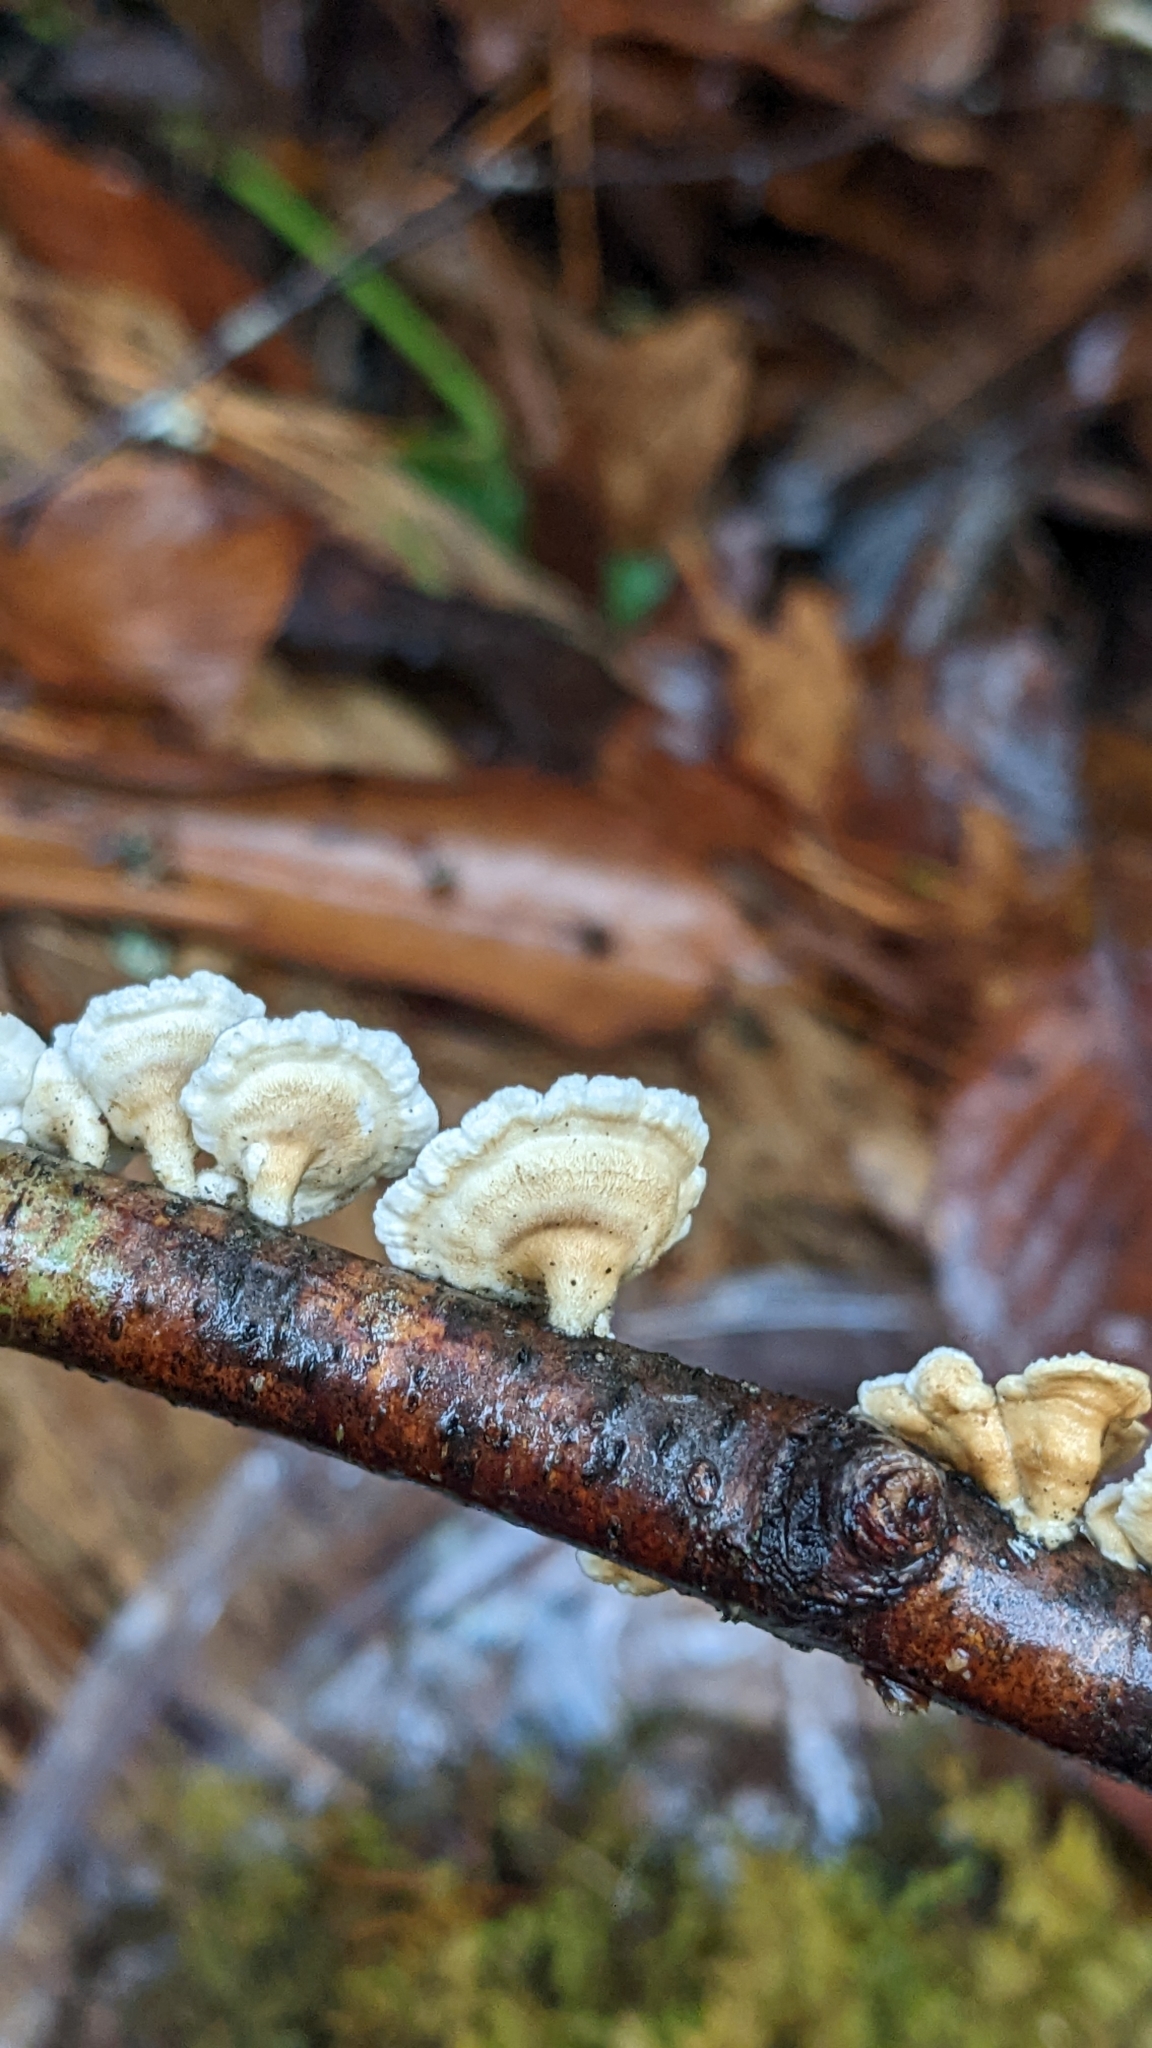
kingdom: Fungi
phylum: Basidiomycota
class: Agaricomycetes
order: Amylocorticiales
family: Amylocorticiaceae
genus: Plicaturopsis
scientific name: Plicaturopsis crispa
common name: Crimped gill
